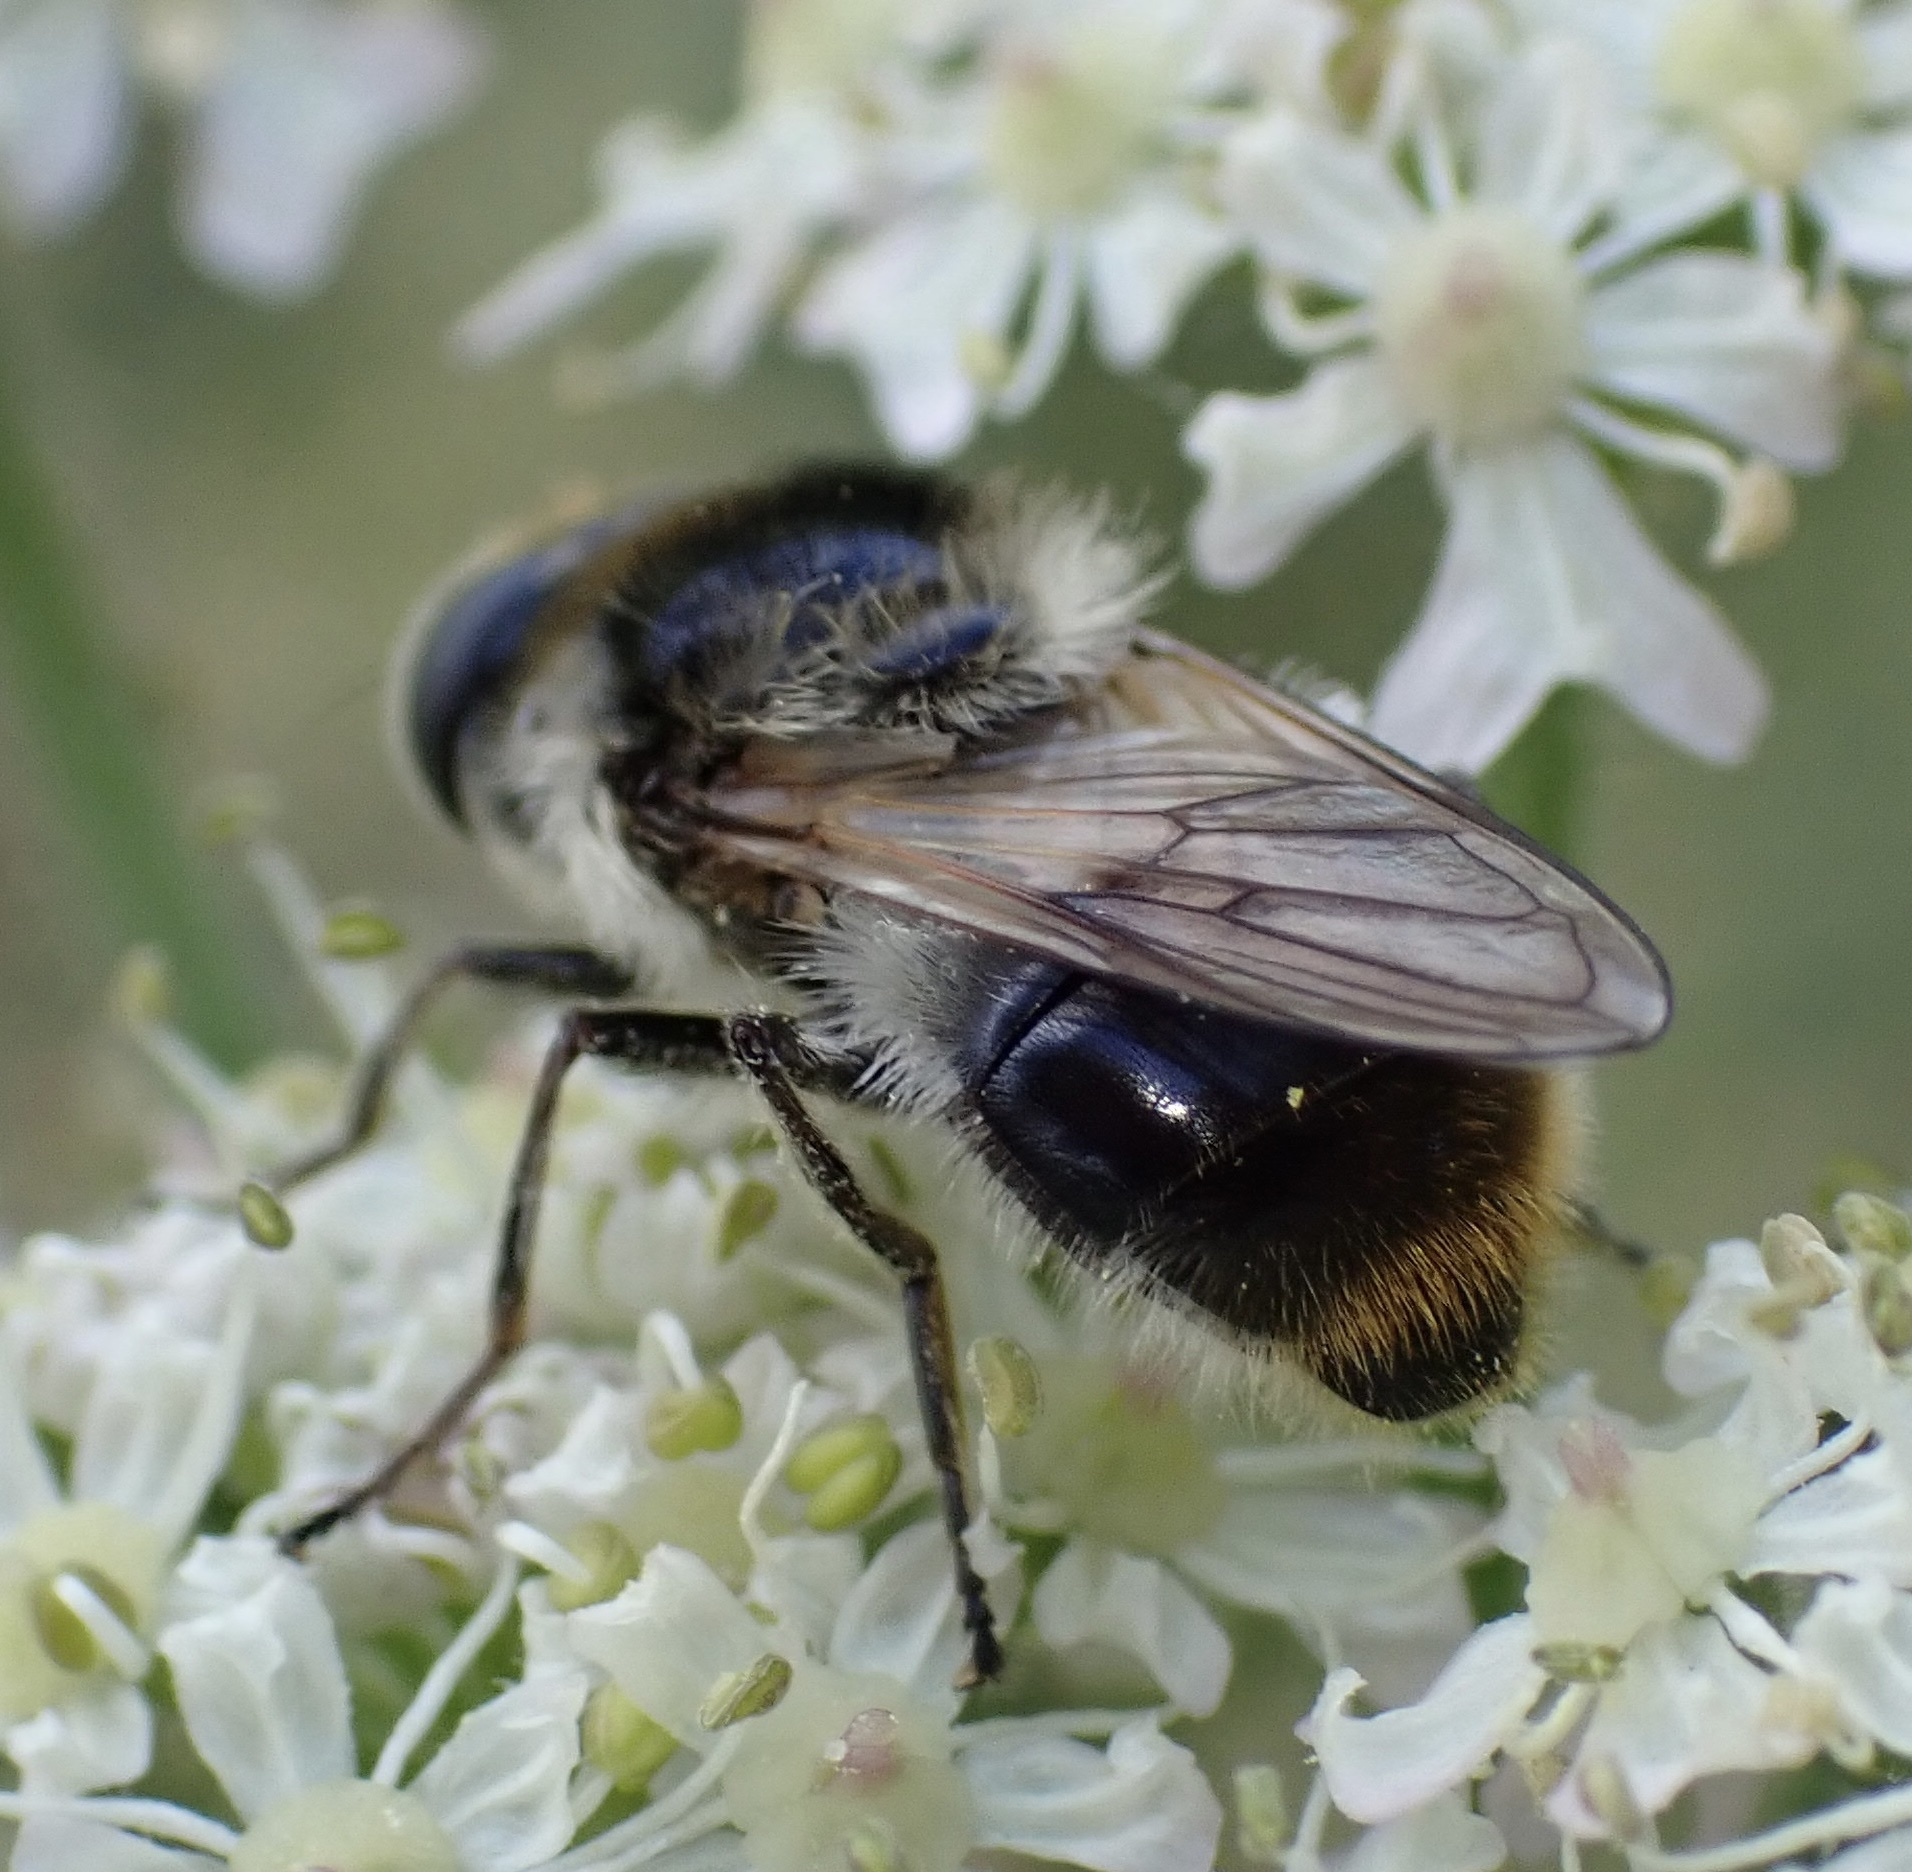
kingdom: Animalia
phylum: Arthropoda
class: Insecta
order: Diptera
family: Syrphidae
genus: Cheilosia
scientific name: Cheilosia illustrata
